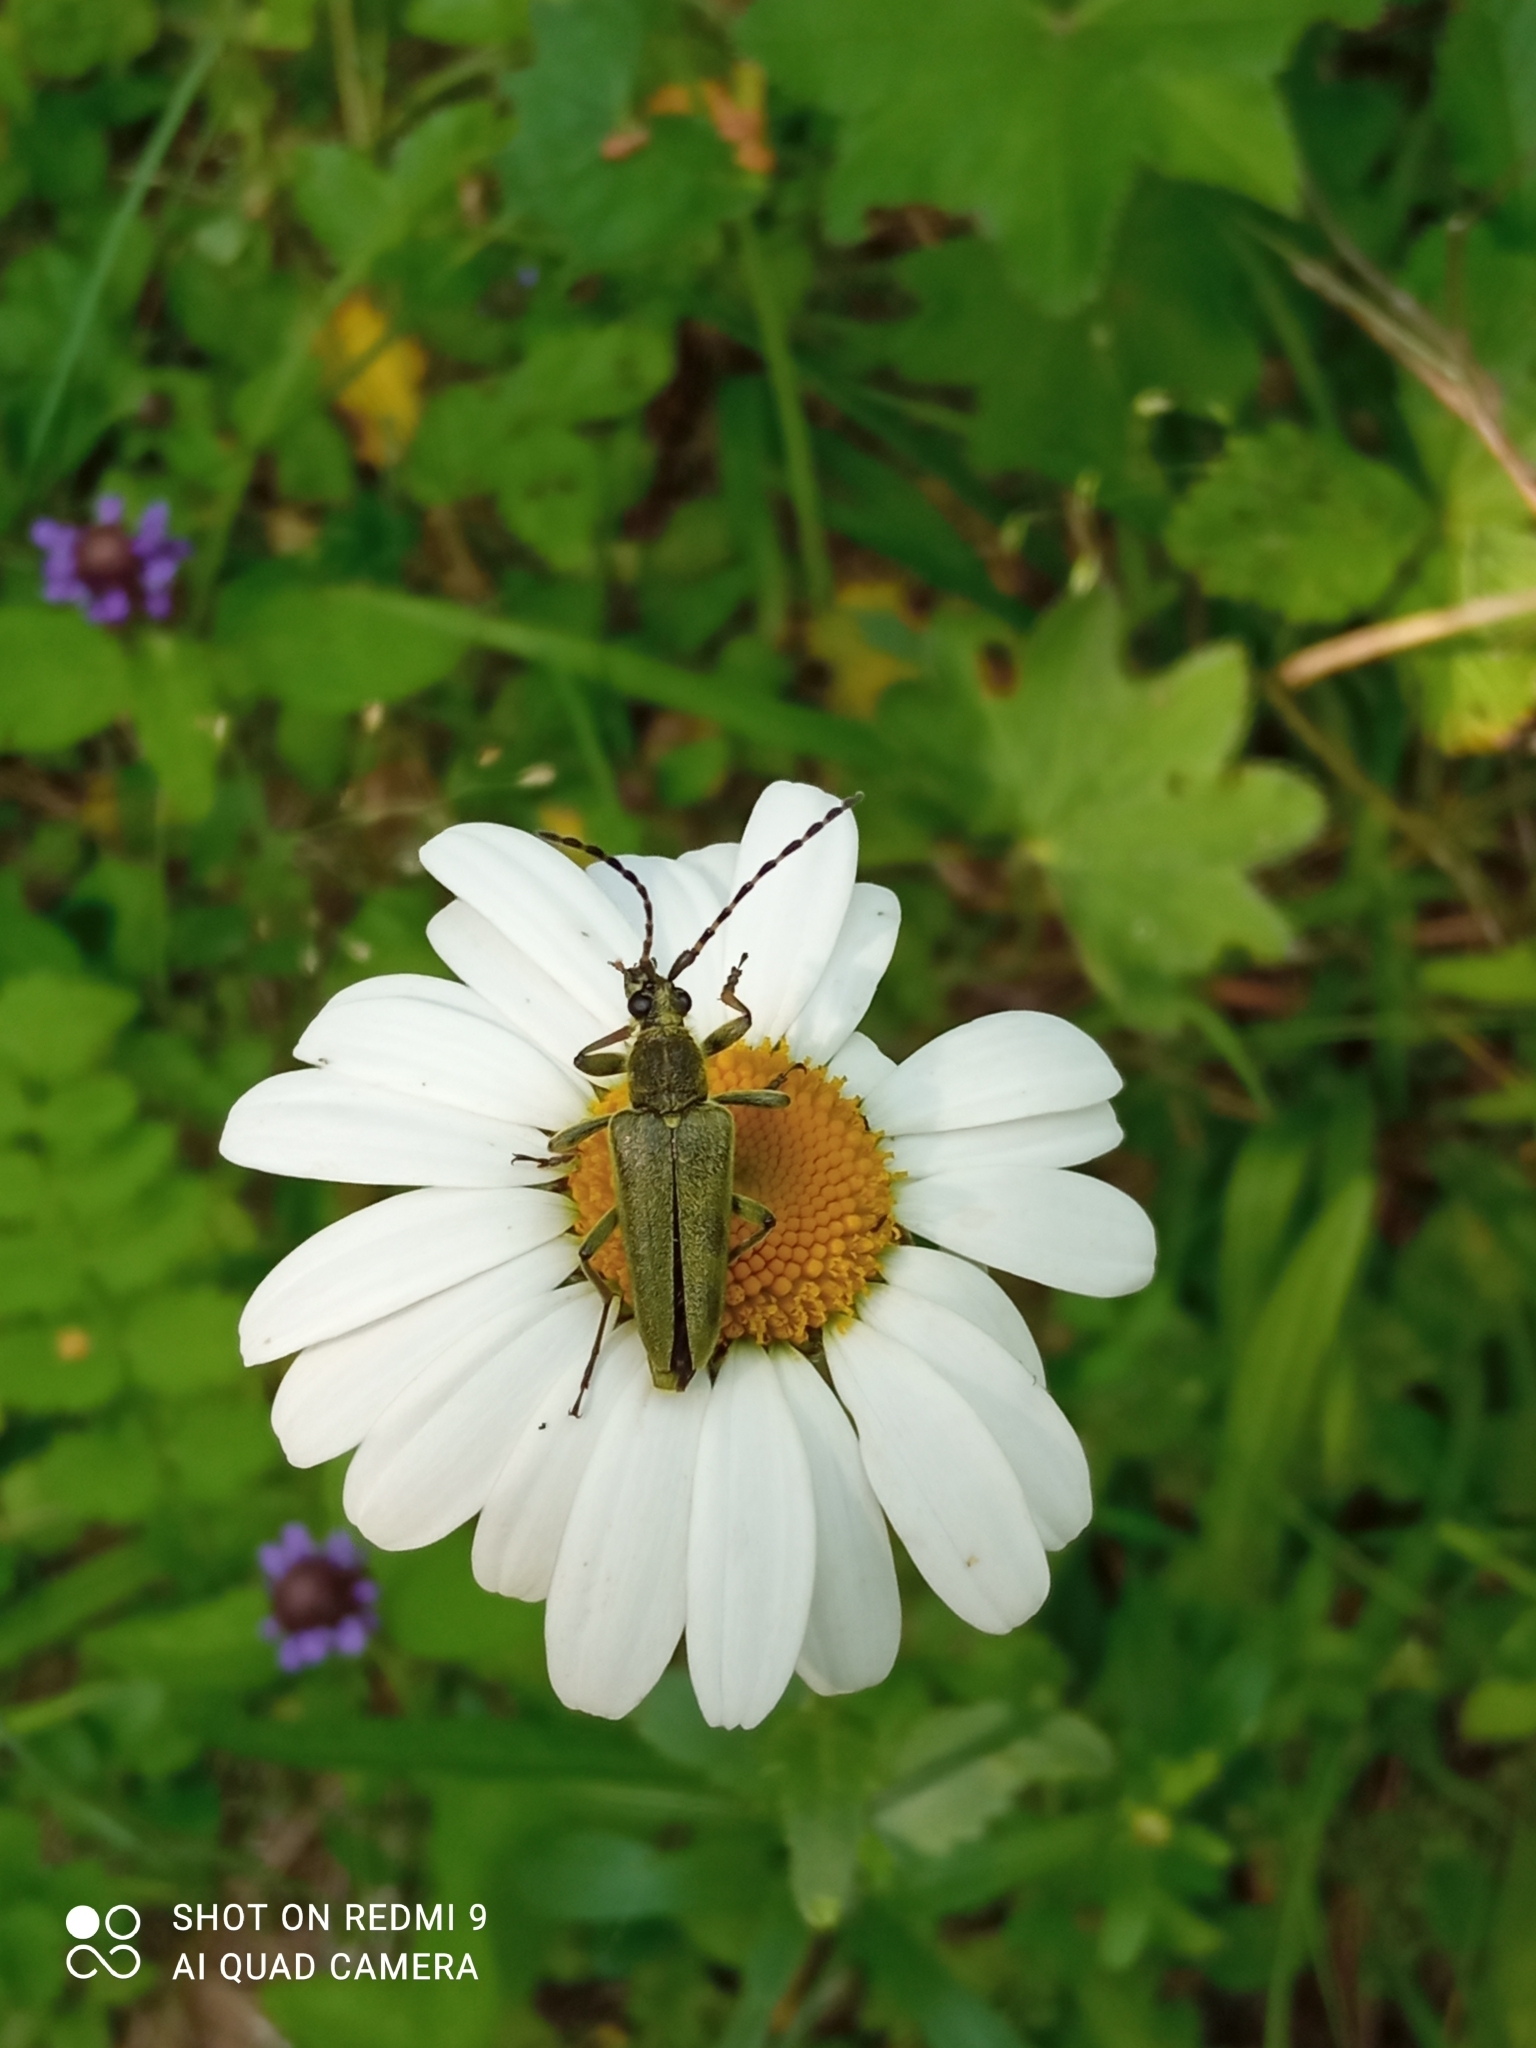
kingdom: Animalia
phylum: Arthropoda
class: Insecta
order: Coleoptera
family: Cerambycidae
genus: Lepturobosca
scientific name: Lepturobosca virens
